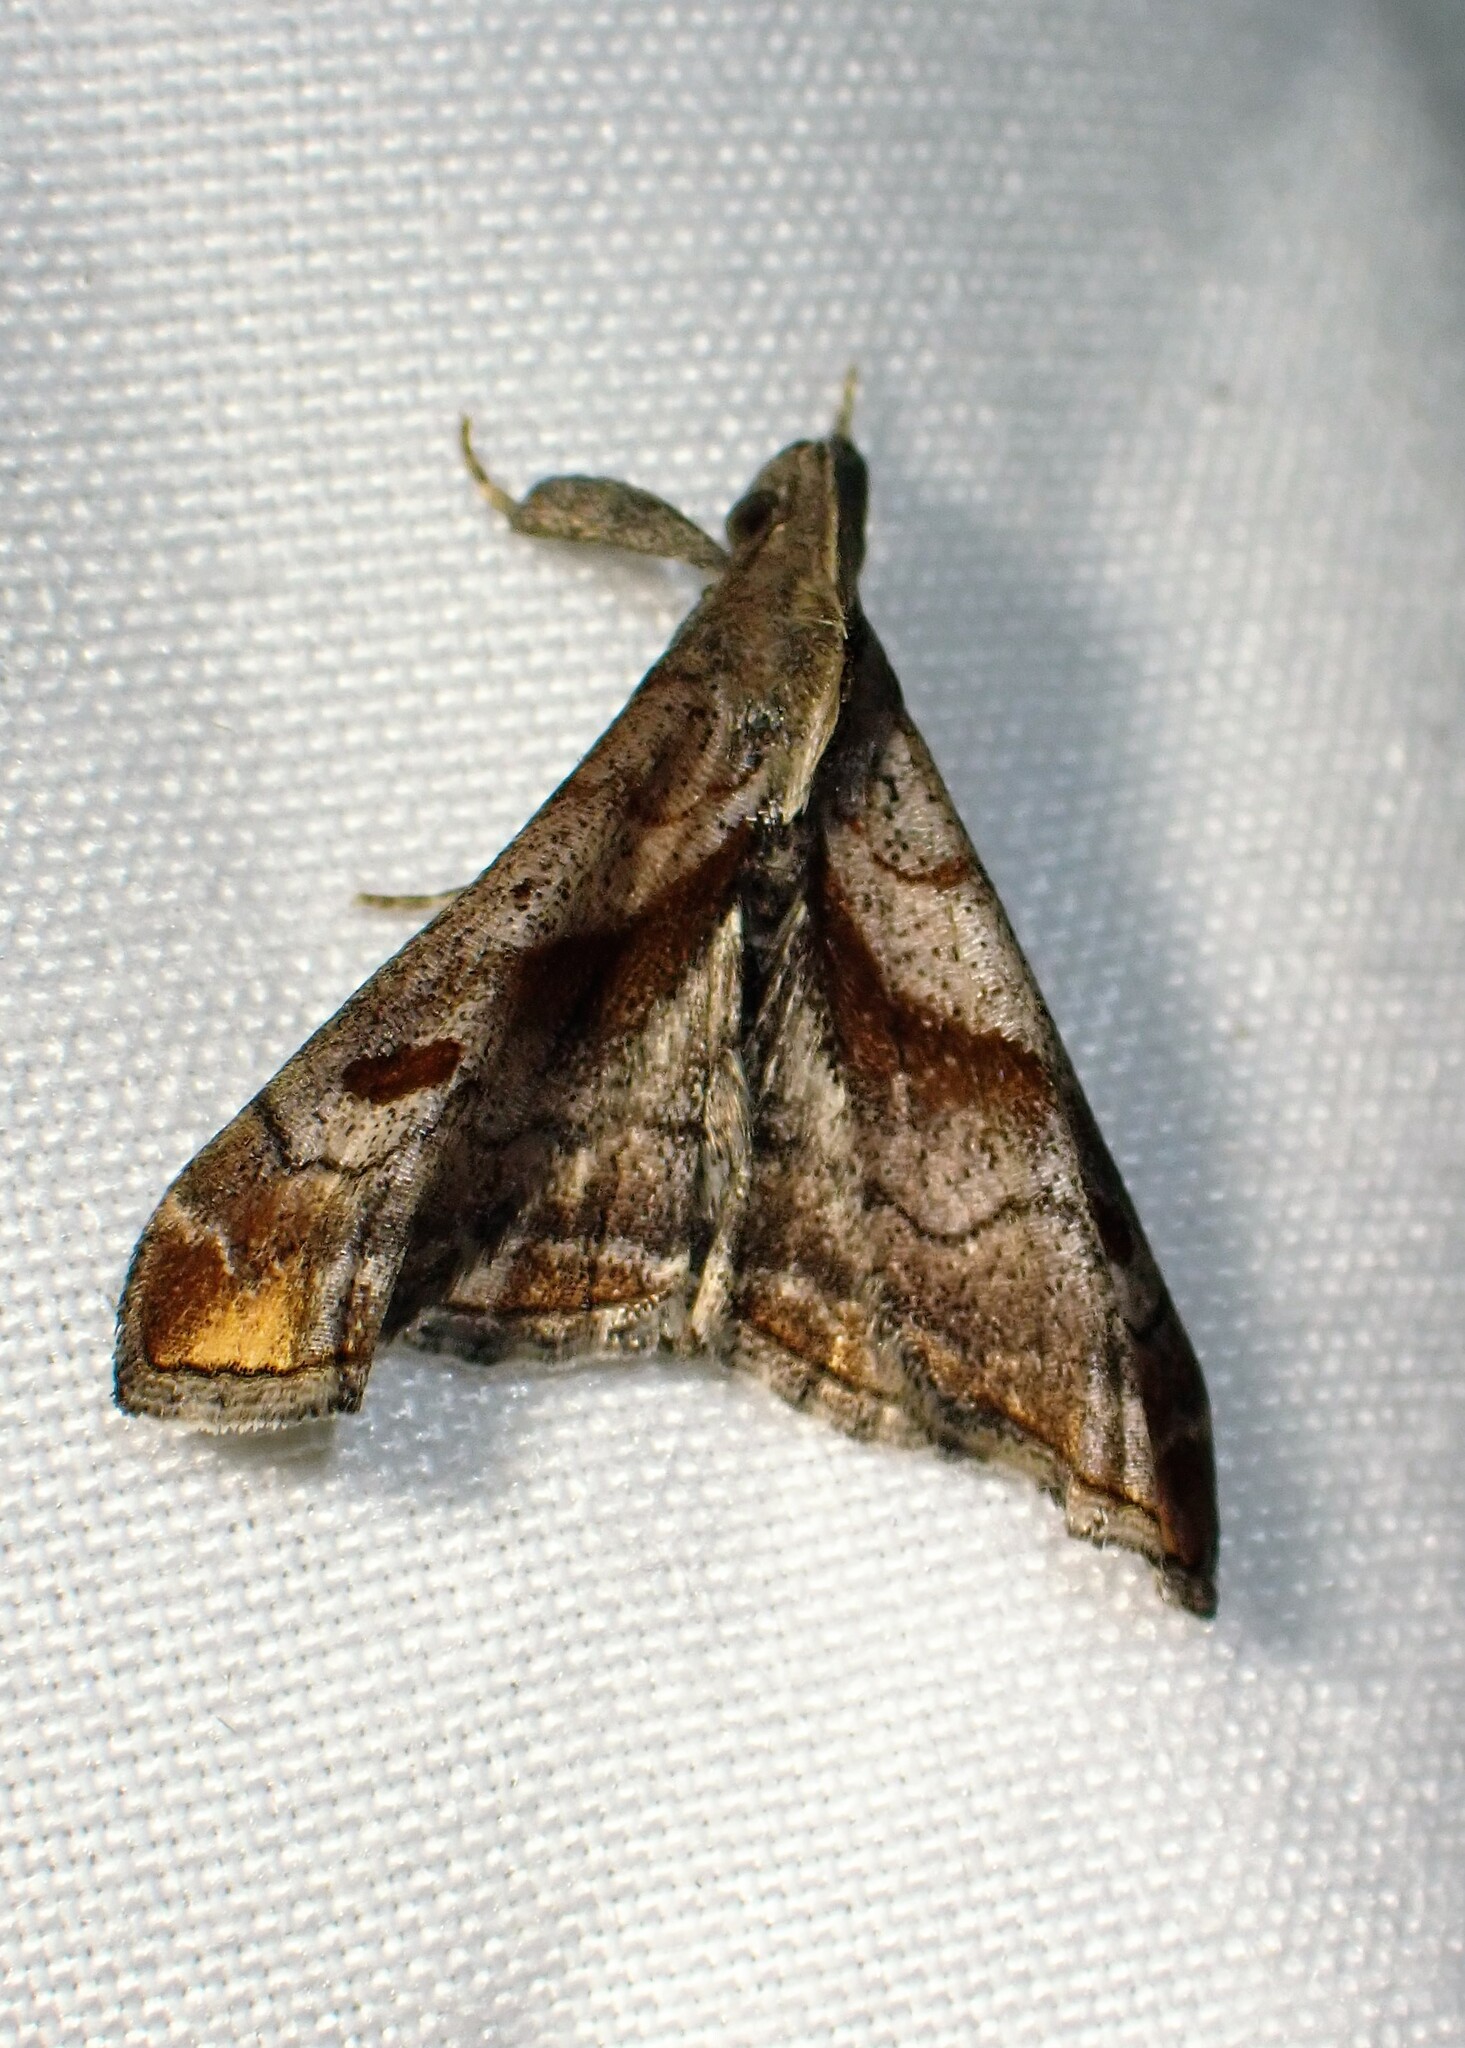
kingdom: Animalia
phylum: Arthropoda
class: Insecta
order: Lepidoptera
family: Erebidae
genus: Palthis
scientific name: Palthis angulalis
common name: Dark-spotted palthis moth
